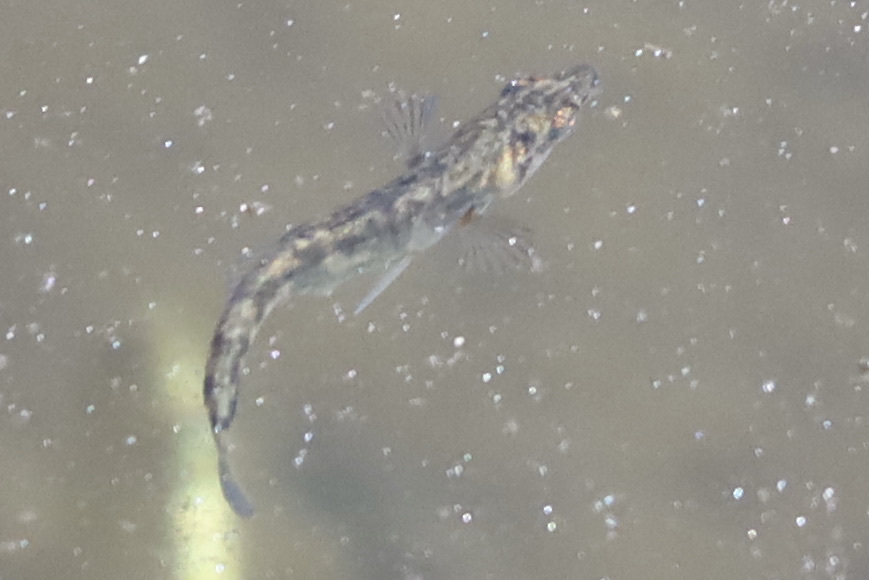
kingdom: Animalia
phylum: Chordata
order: Gasterosteiformes
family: Gasterosteidae
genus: Gasterosteus
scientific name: Gasterosteus aculeatus
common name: Three-spined stickleback
